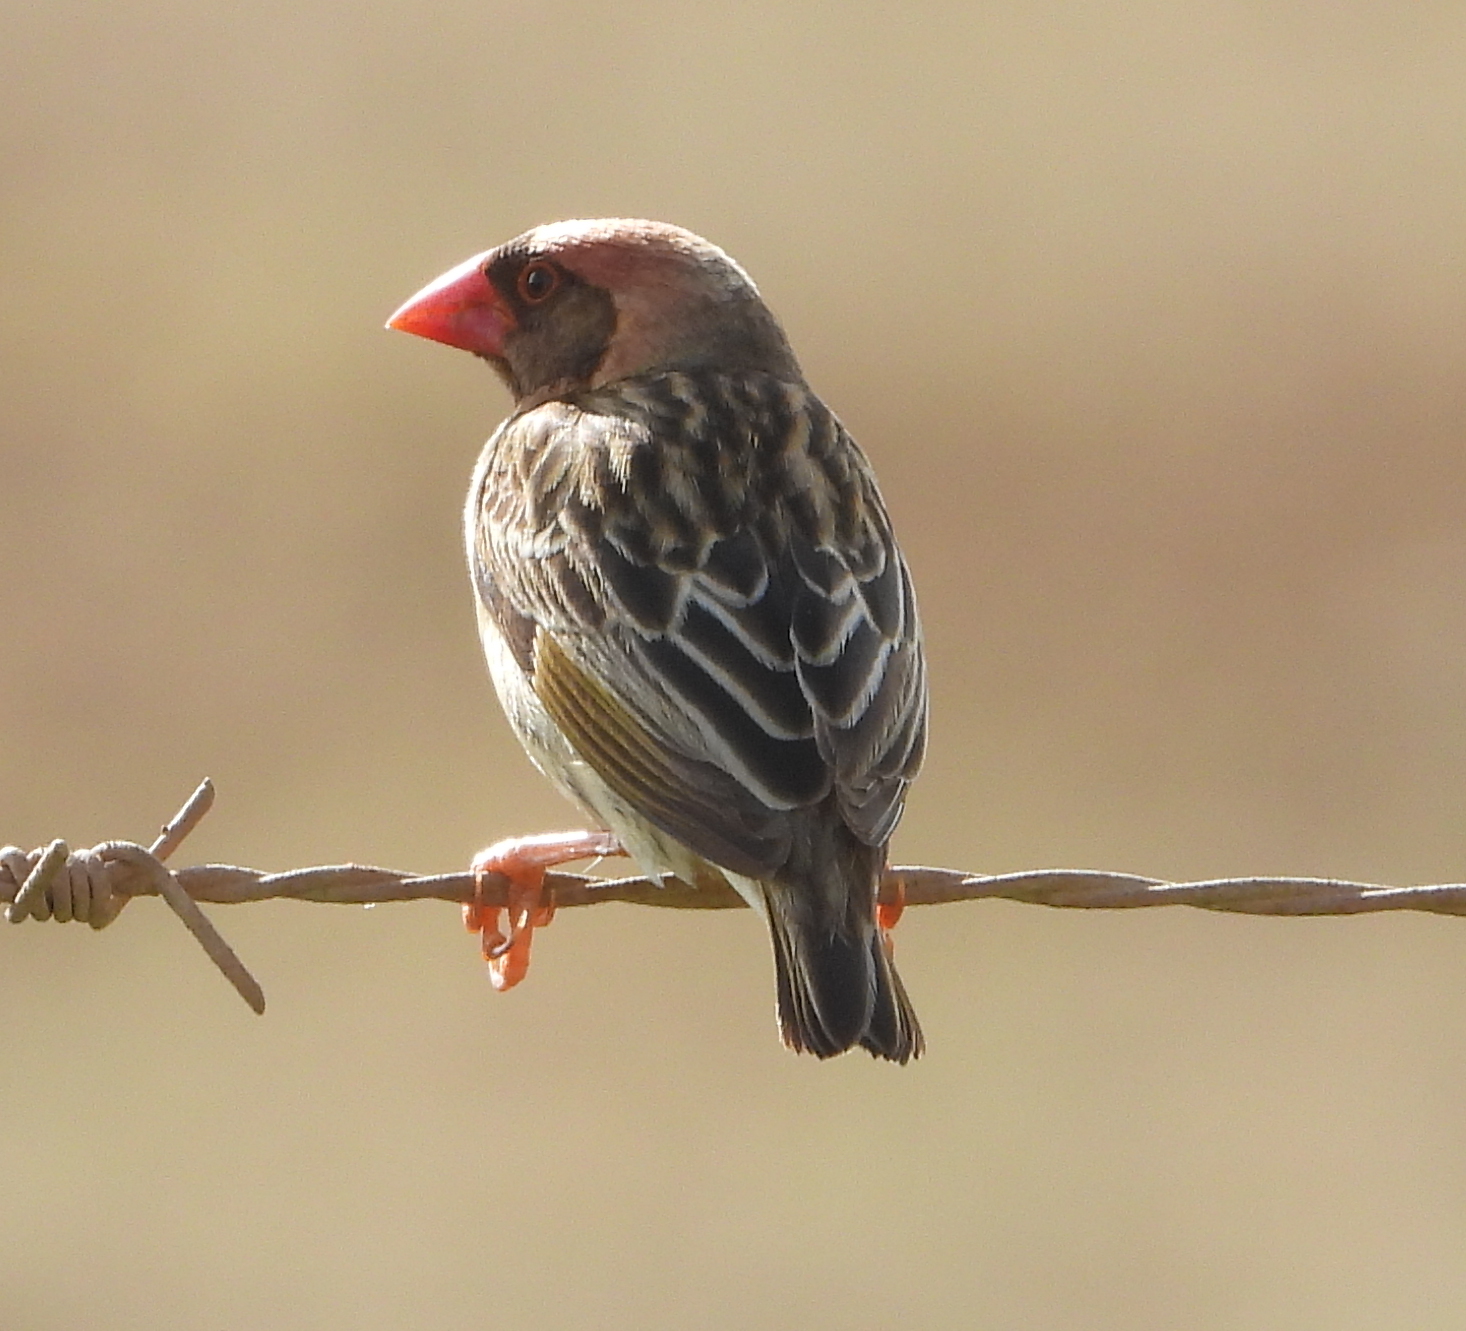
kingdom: Animalia
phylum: Chordata
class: Aves
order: Passeriformes
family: Ploceidae
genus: Quelea
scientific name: Quelea quelea
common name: Red-billed quelea
